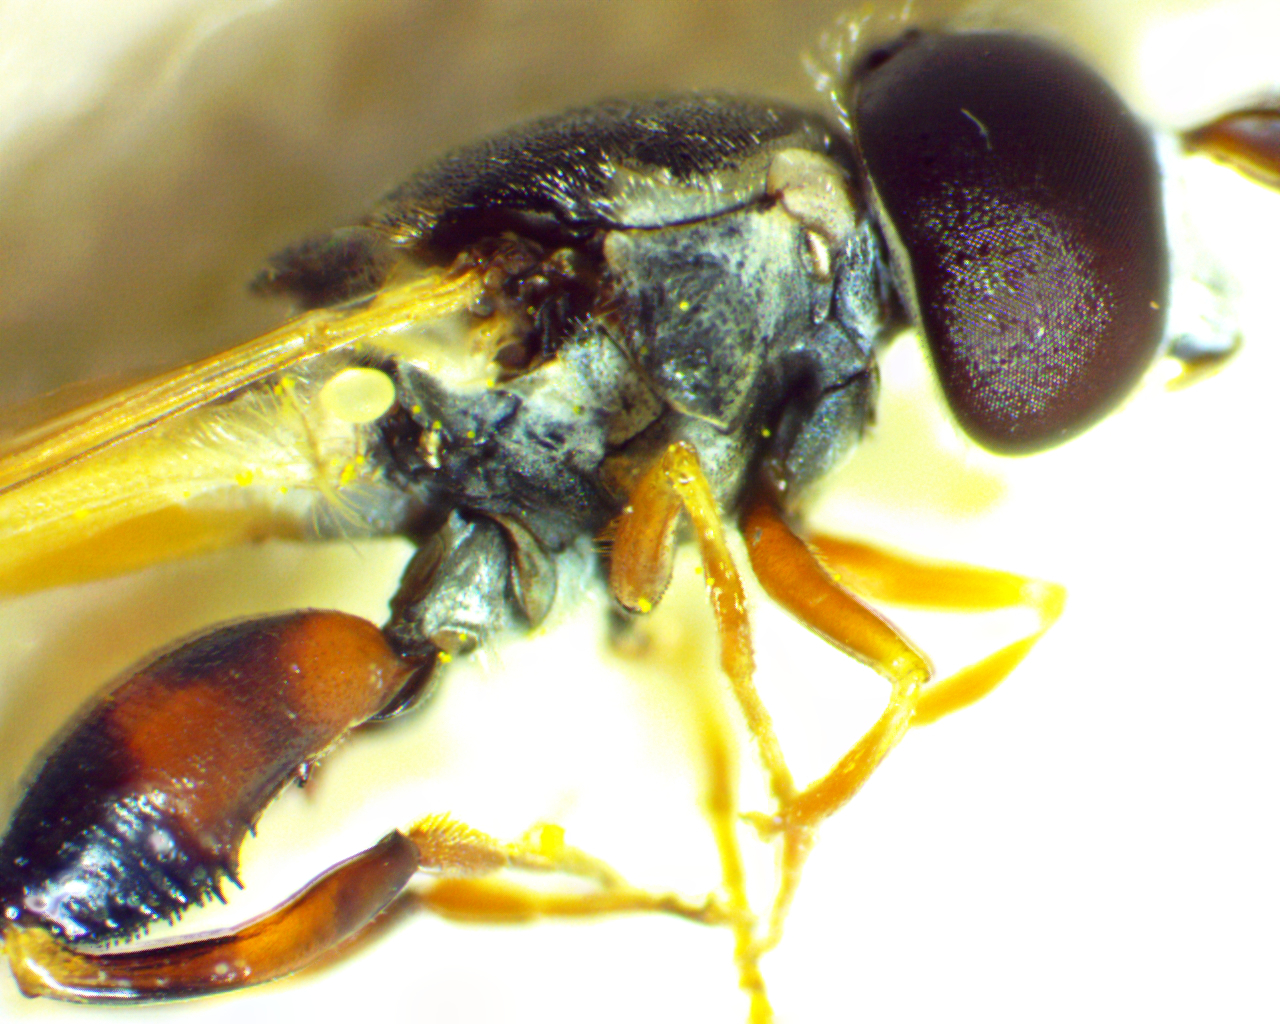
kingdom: Animalia
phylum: Arthropoda
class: Insecta
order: Diptera
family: Syrphidae
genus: Syritta
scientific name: Syritta flaviventris
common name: Syrphid fly
